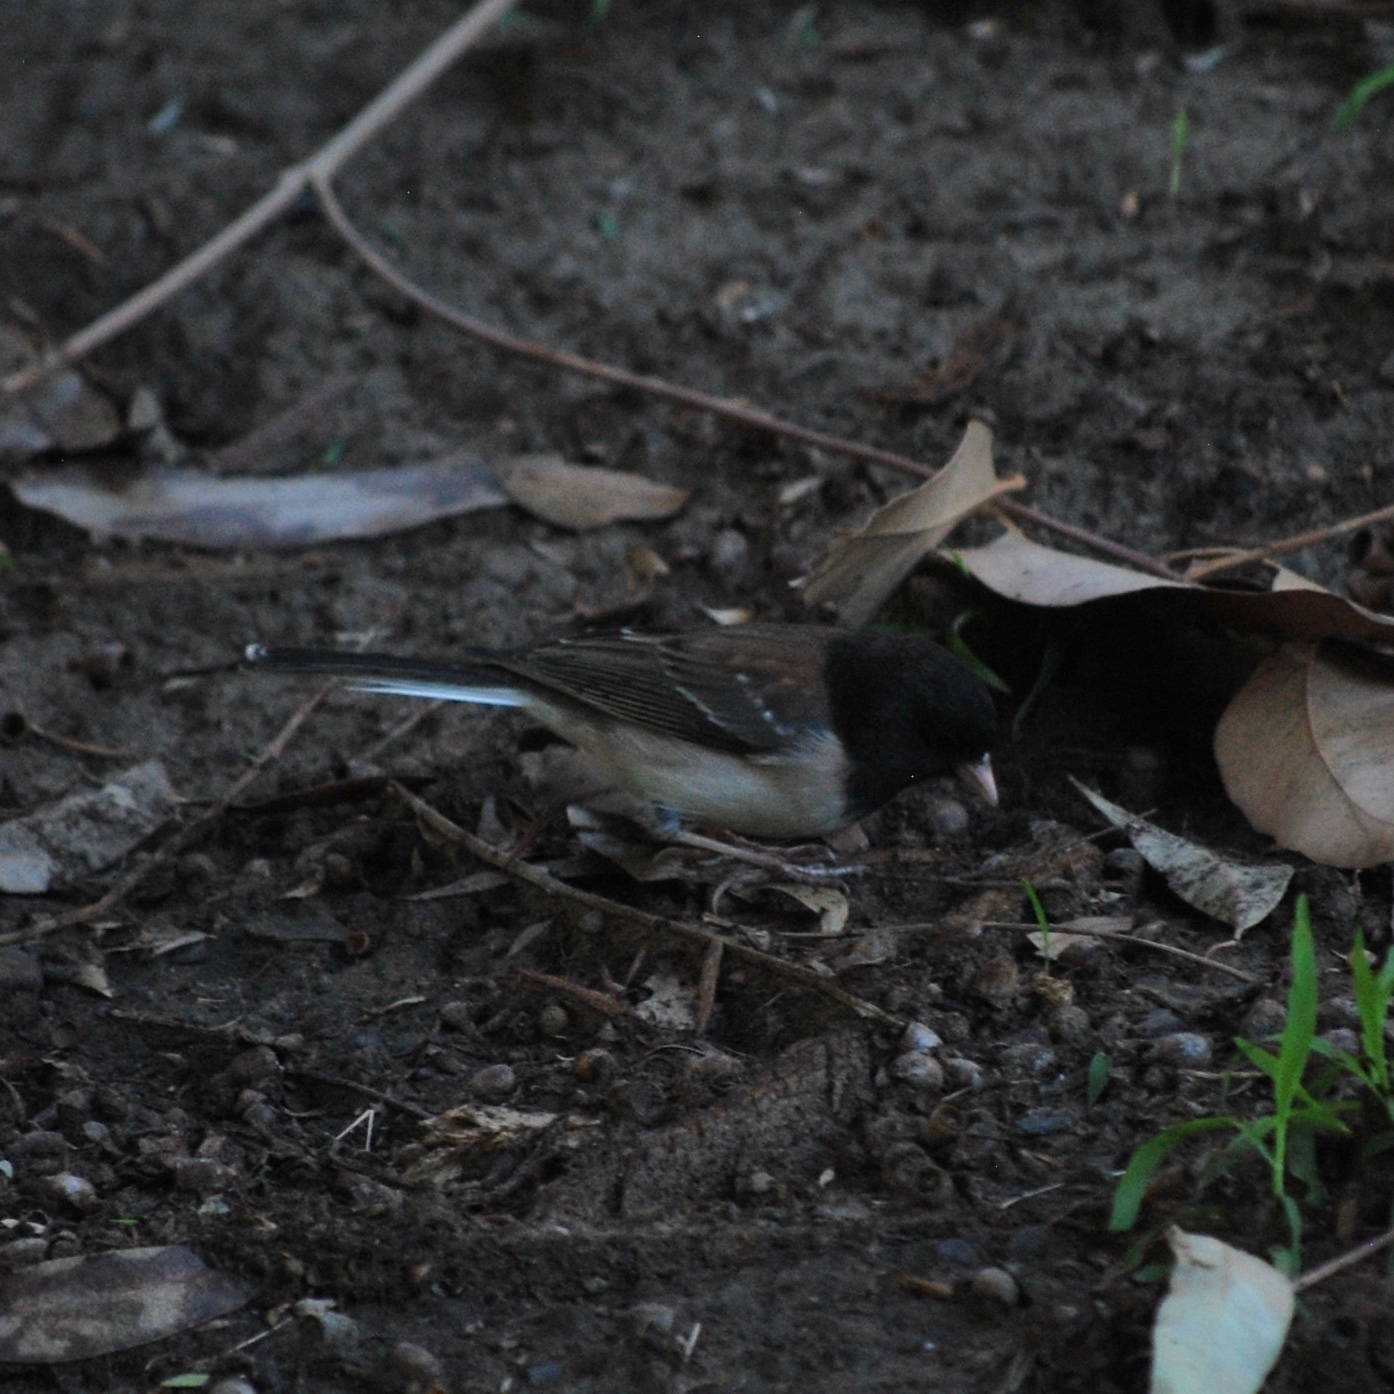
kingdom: Animalia
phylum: Chordata
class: Aves
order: Passeriformes
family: Passerellidae
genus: Junco
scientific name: Junco hyemalis
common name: Dark-eyed junco
